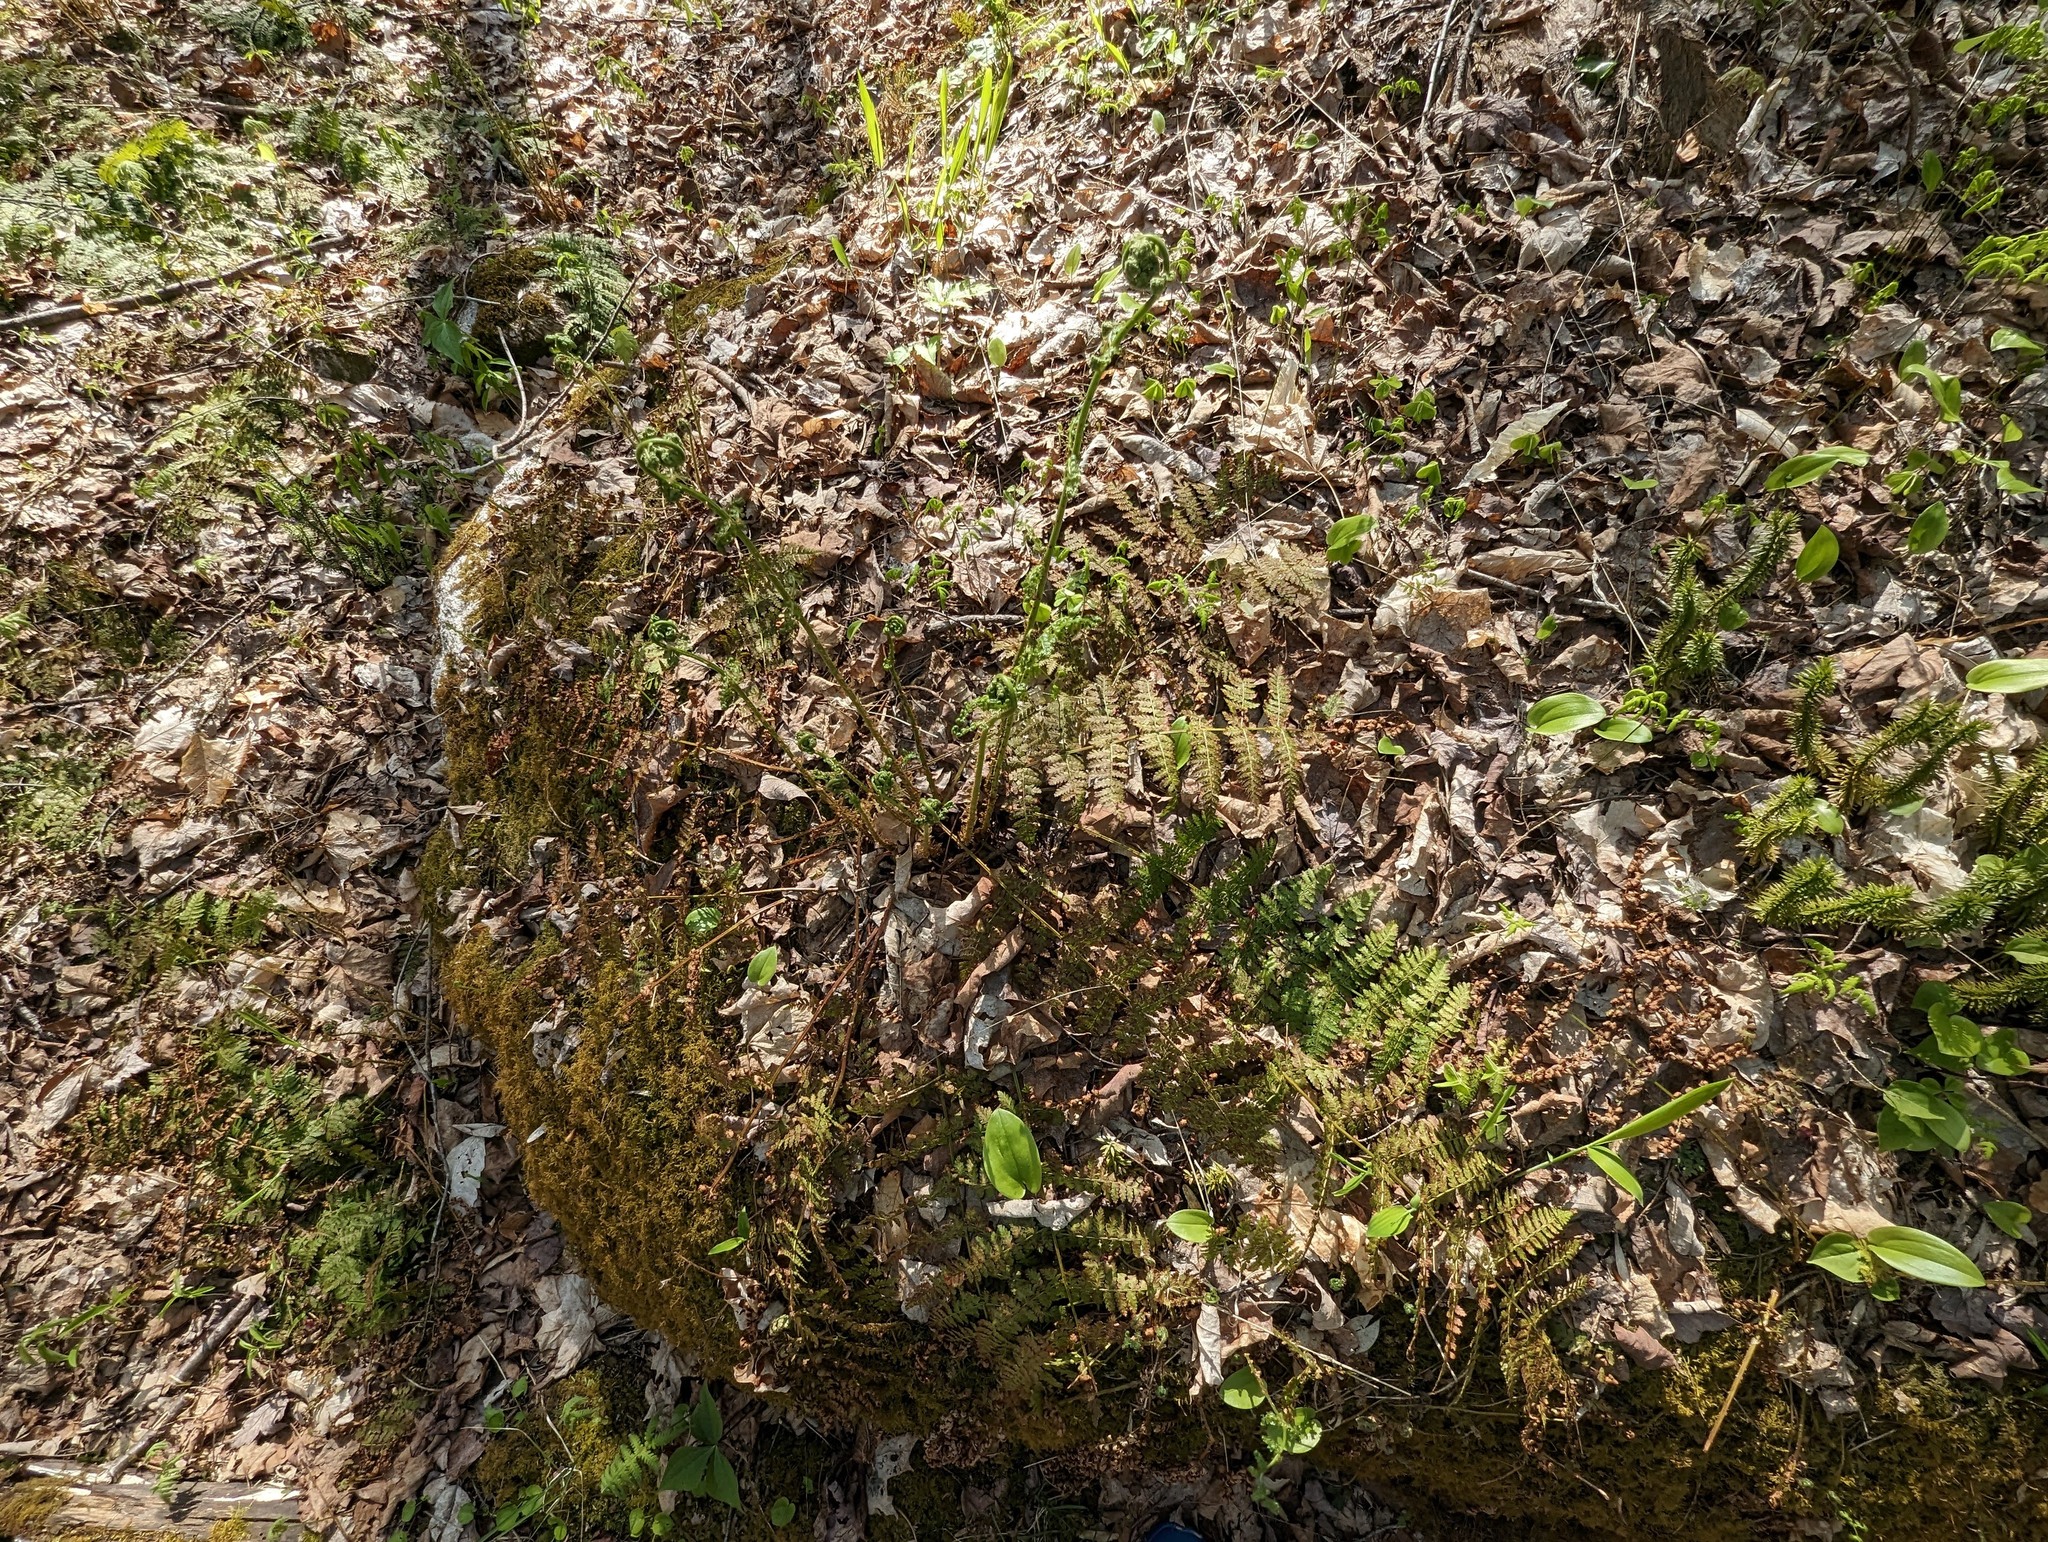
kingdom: Plantae
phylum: Tracheophyta
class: Polypodiopsida
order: Polypodiales
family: Dryopteridaceae
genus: Dryopteris
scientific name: Dryopteris intermedia
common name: Evergreen wood fern
